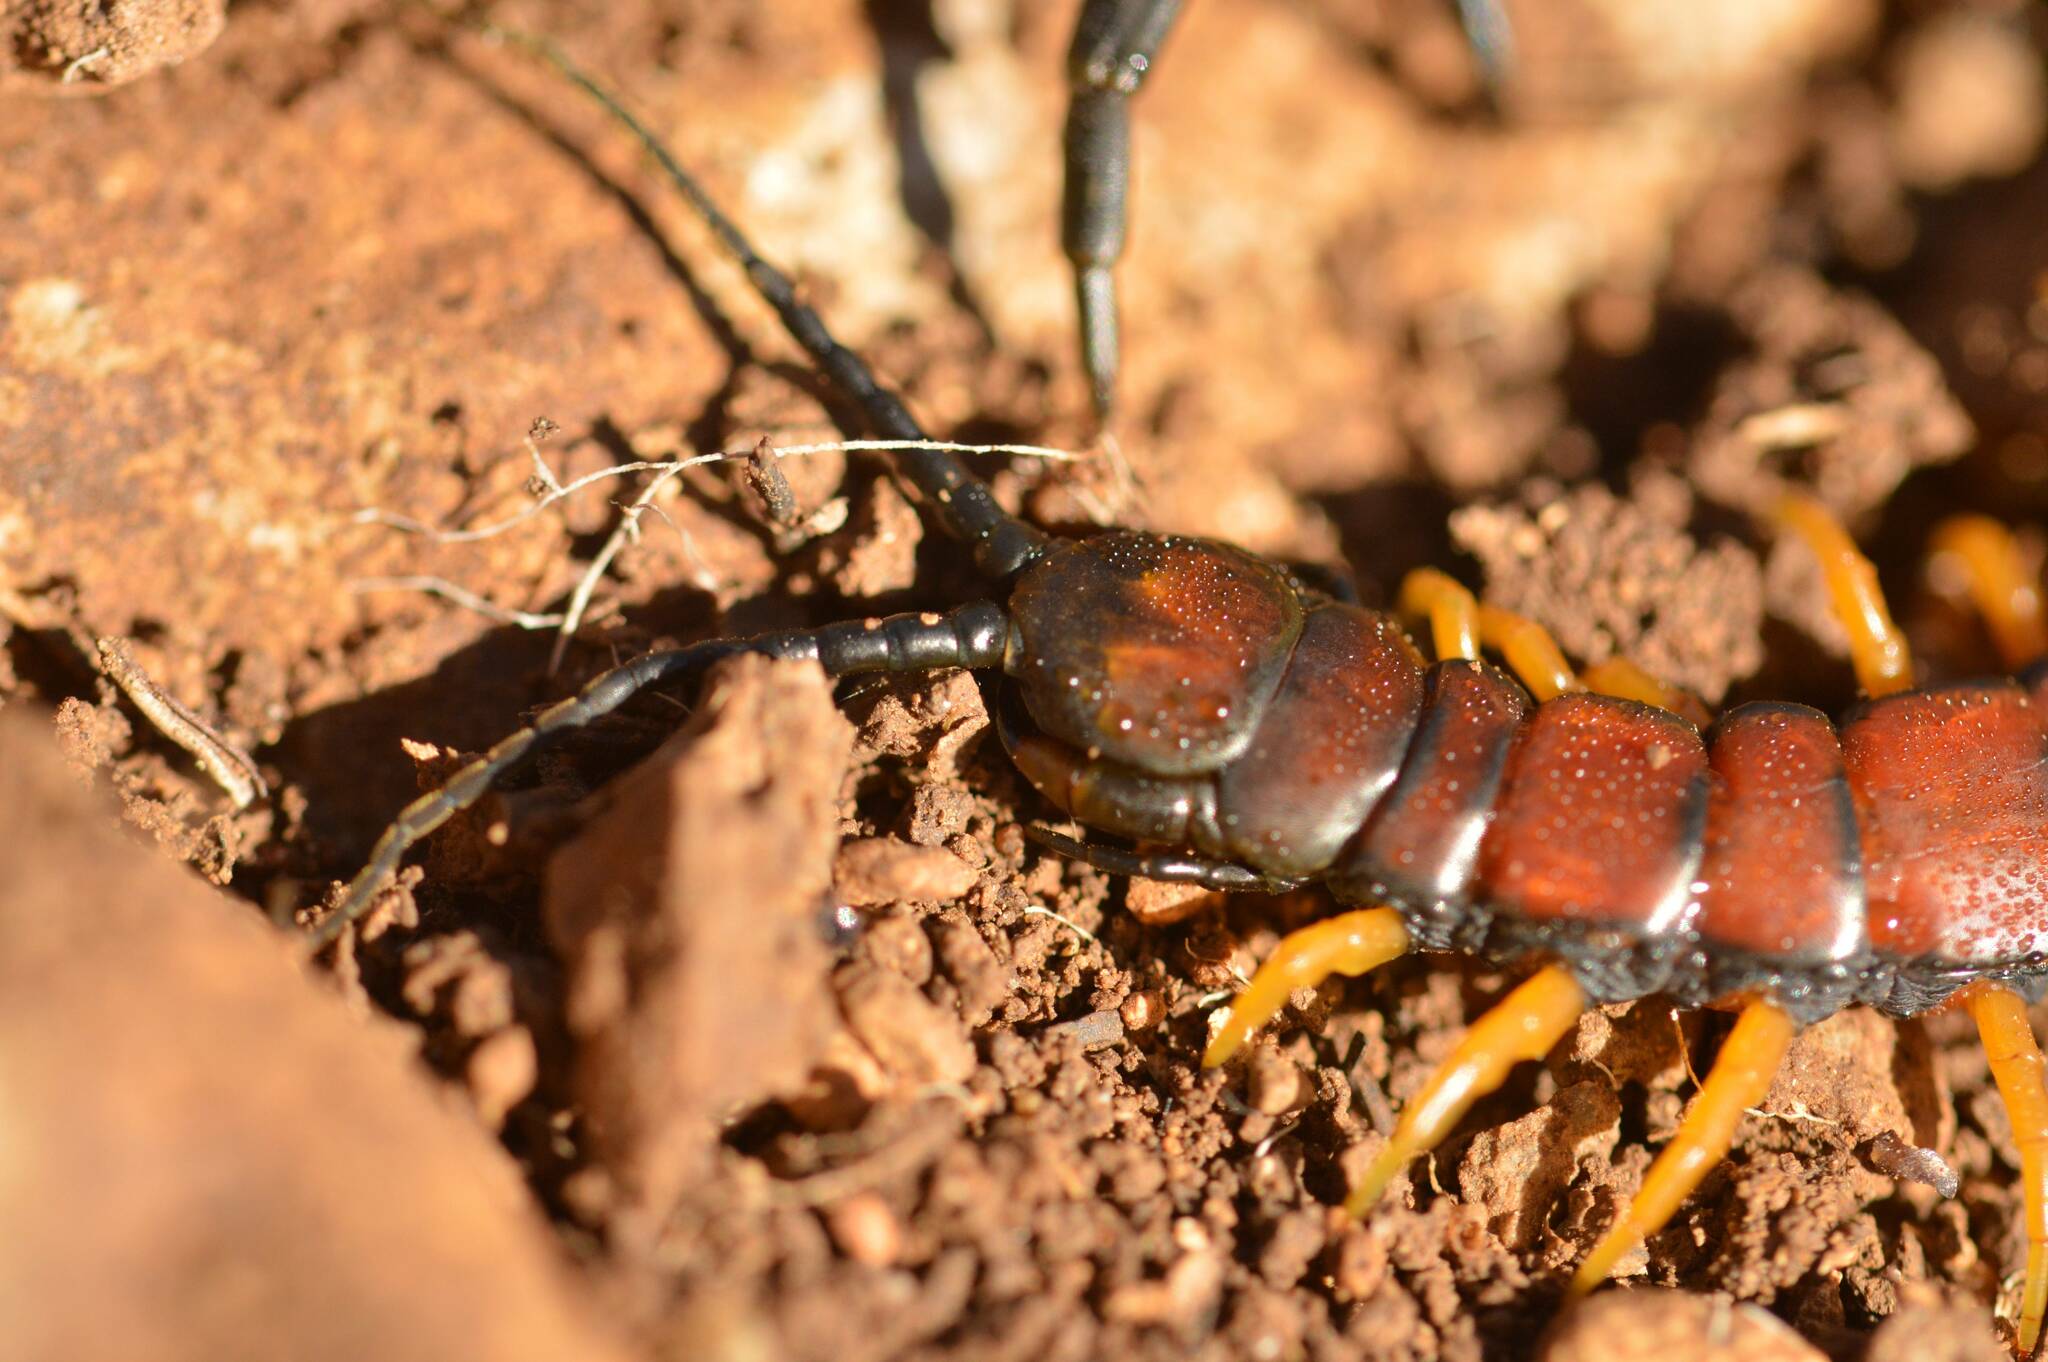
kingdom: Animalia
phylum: Arthropoda
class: Chilopoda
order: Scolopendromorpha
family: Scolopendridae
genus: Scolopendra
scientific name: Scolopendra cingulata
